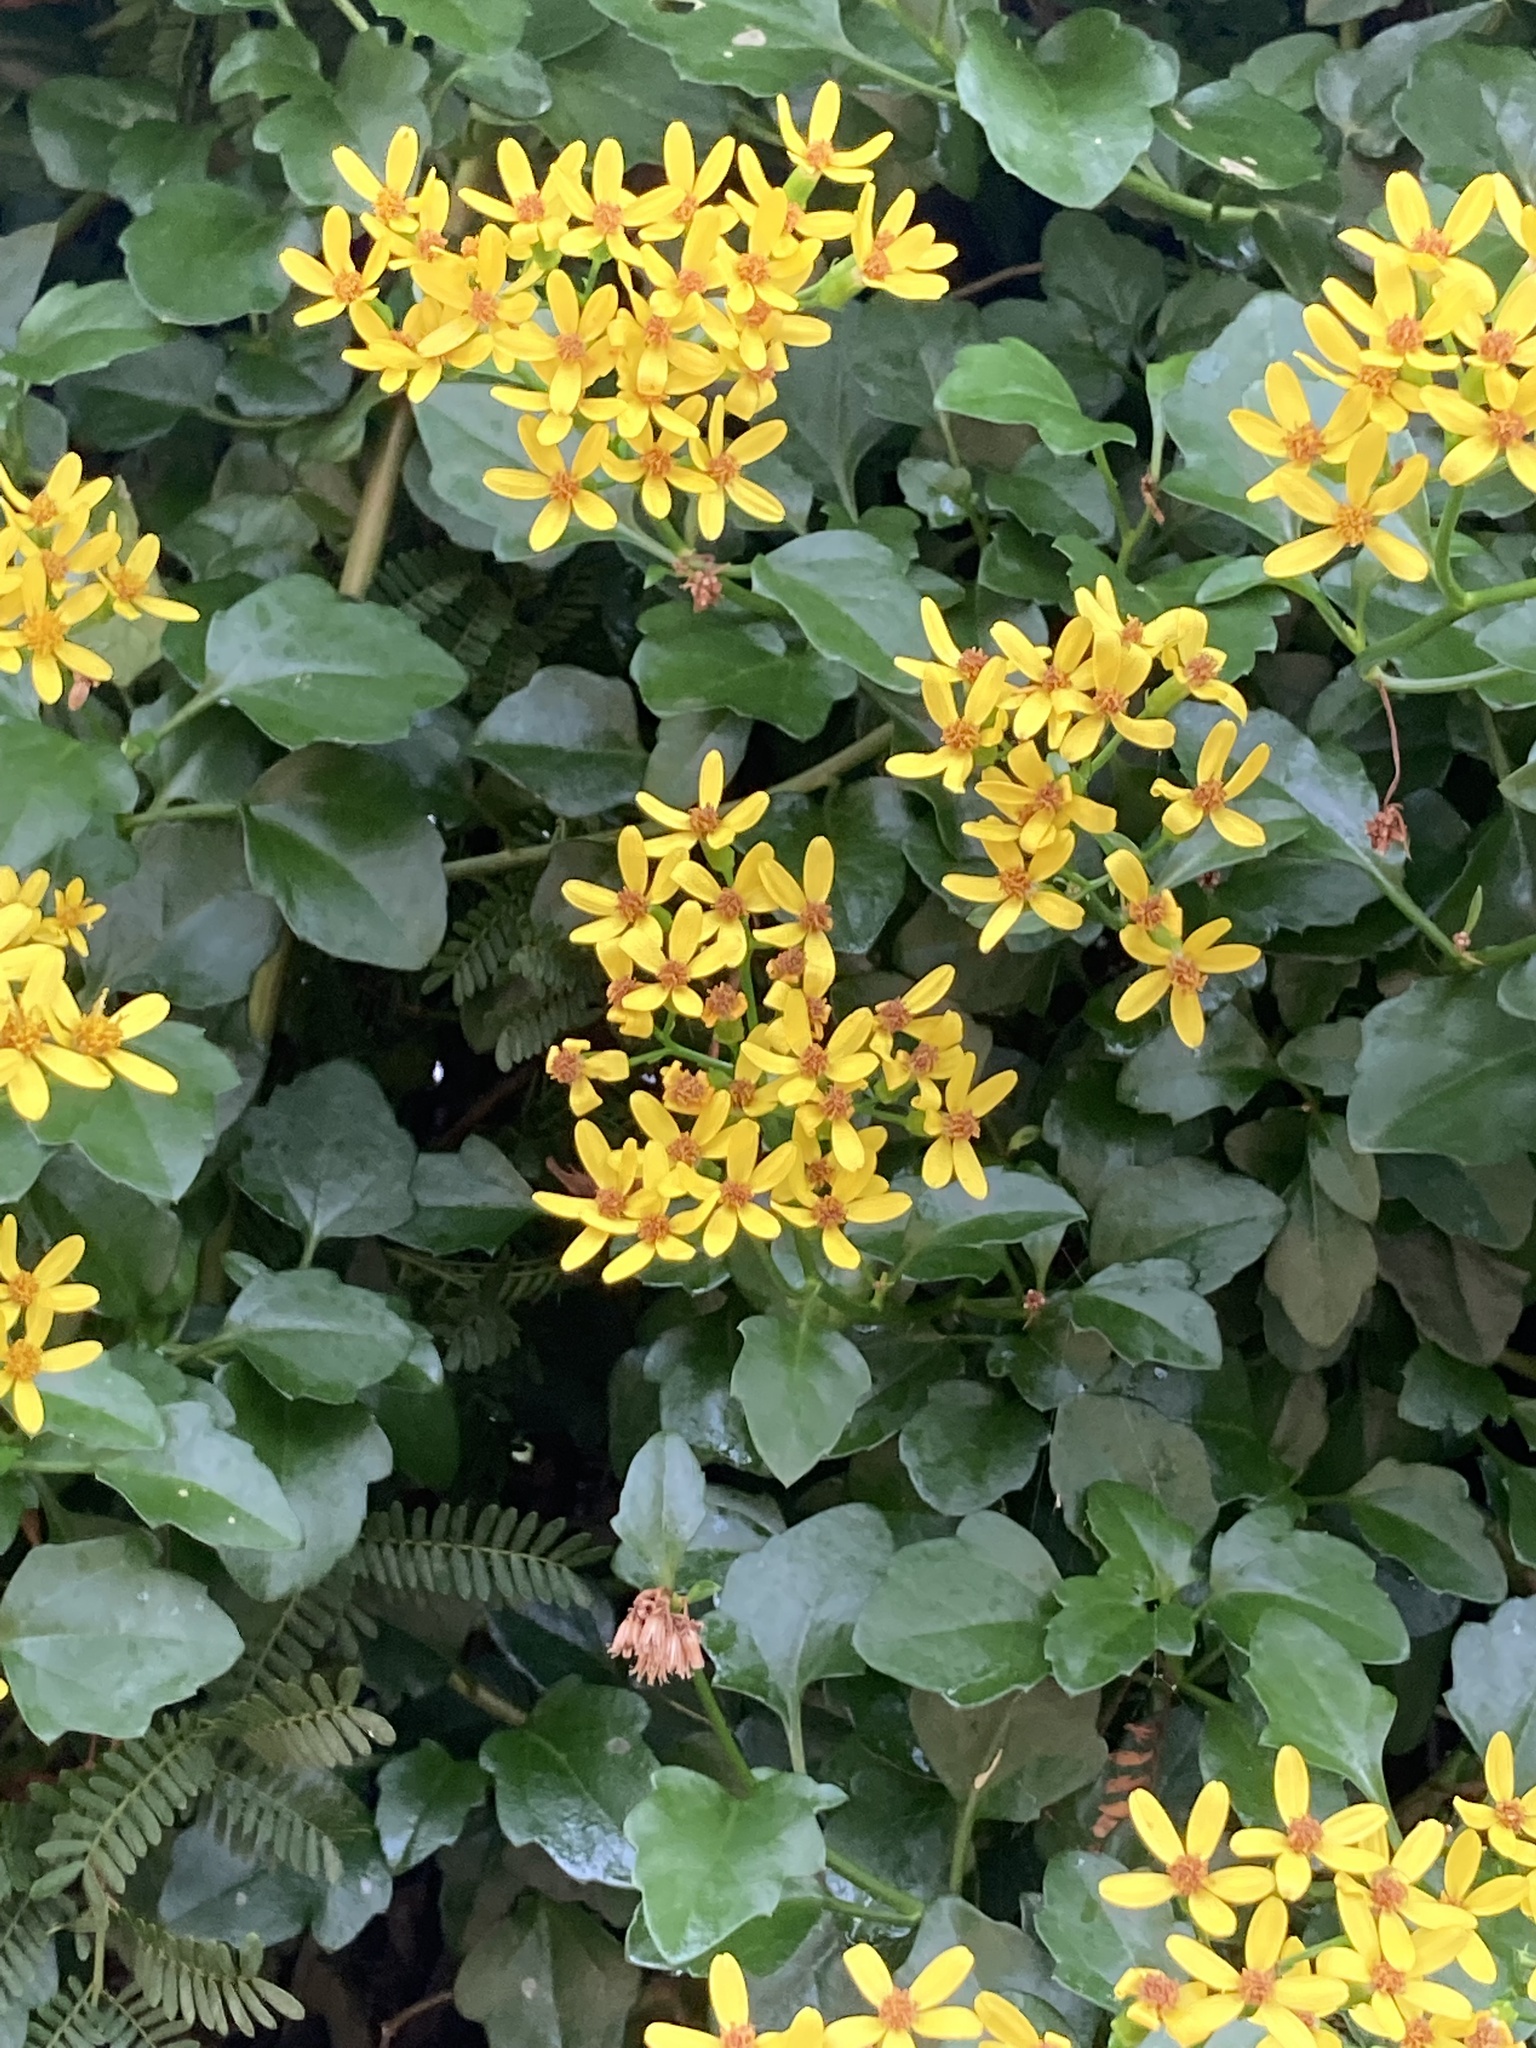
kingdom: Plantae
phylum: Tracheophyta
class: Magnoliopsida
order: Asterales
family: Asteraceae
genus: Senecio
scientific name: Senecio angulatus
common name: Climbing groundsel
